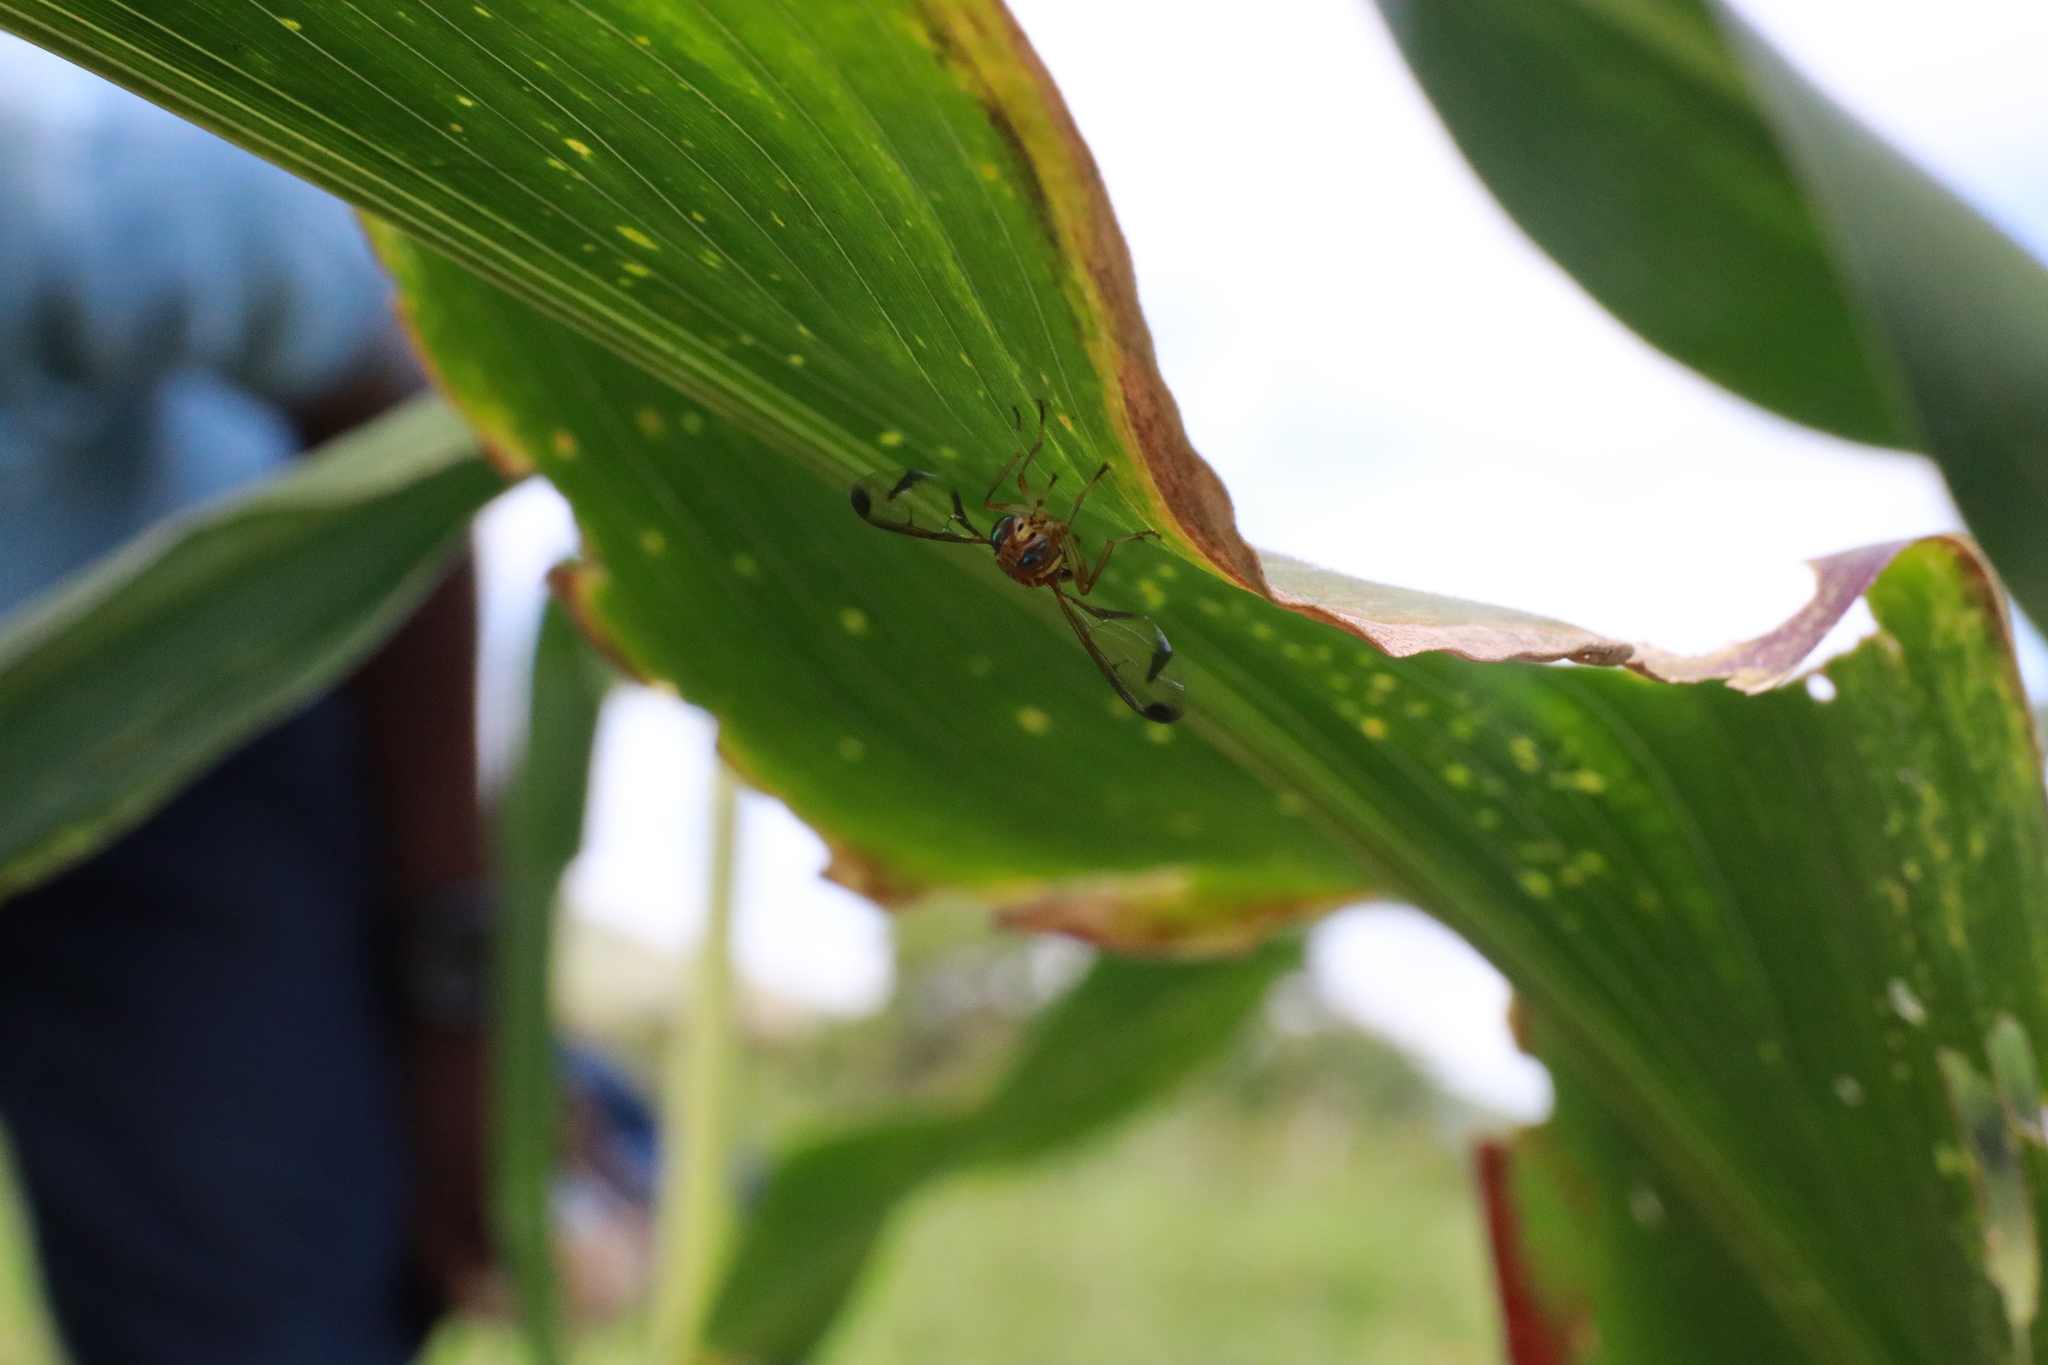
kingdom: Animalia
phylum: Arthropoda
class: Insecta
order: Diptera
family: Tephritidae
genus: Bactrocera
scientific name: Bactrocera cucurbitae
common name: Melon fly
